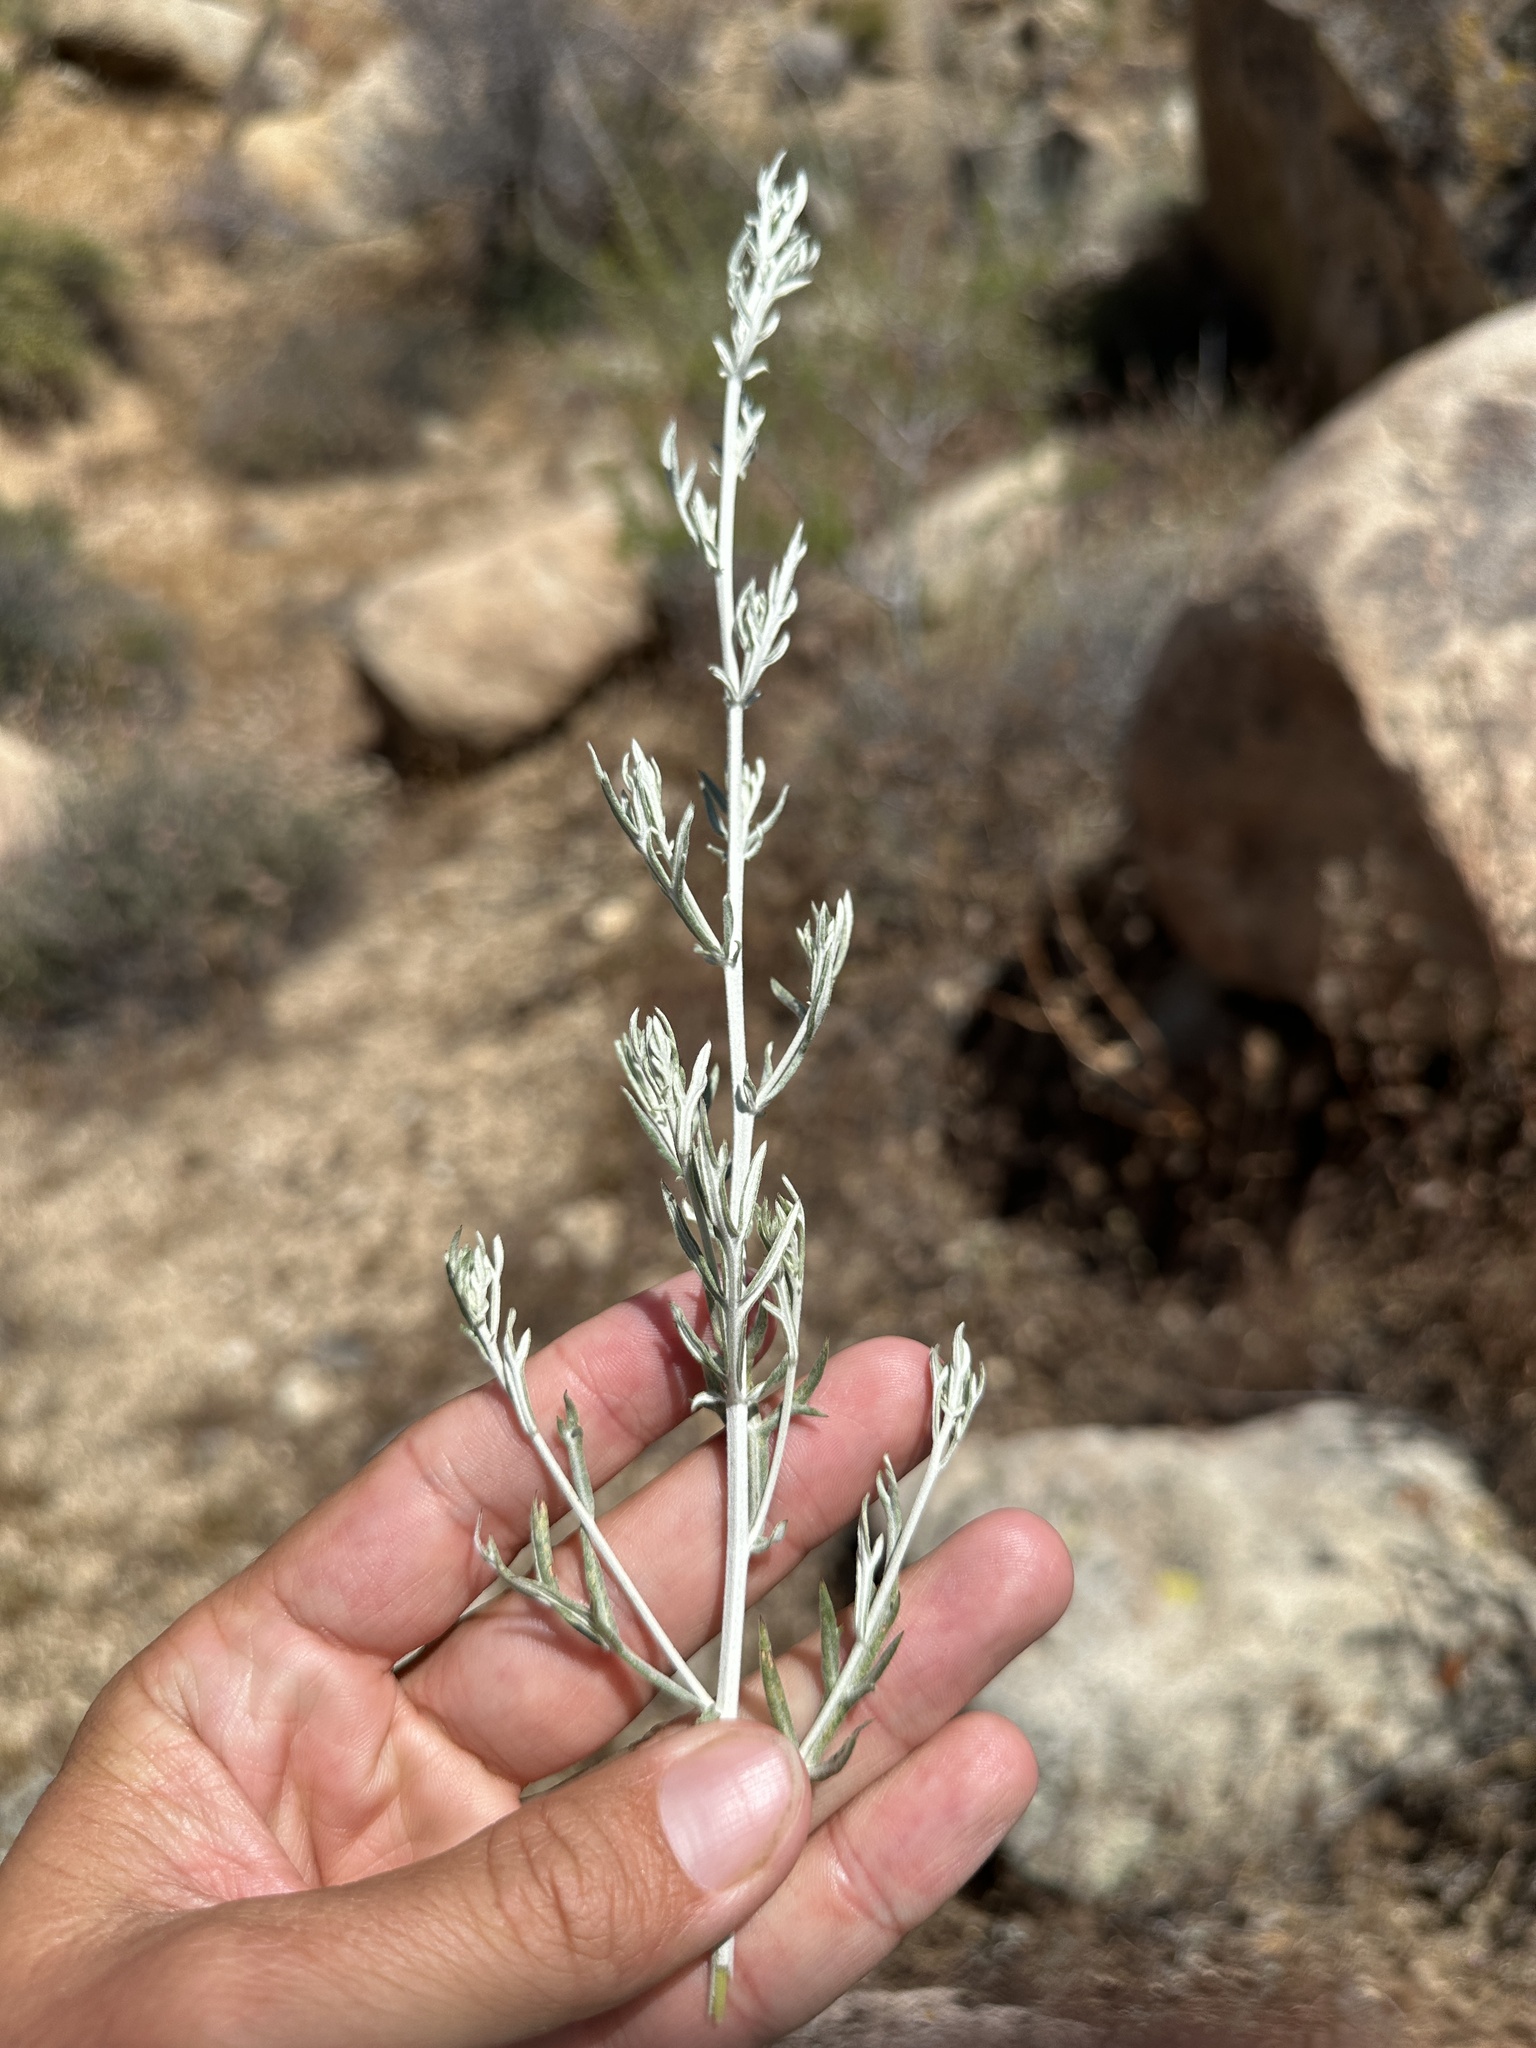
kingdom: Plantae
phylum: Tracheophyta
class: Magnoliopsida
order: Asterales
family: Asteraceae
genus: Artemisia
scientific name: Artemisia ludoviciana
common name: Western mugwort
